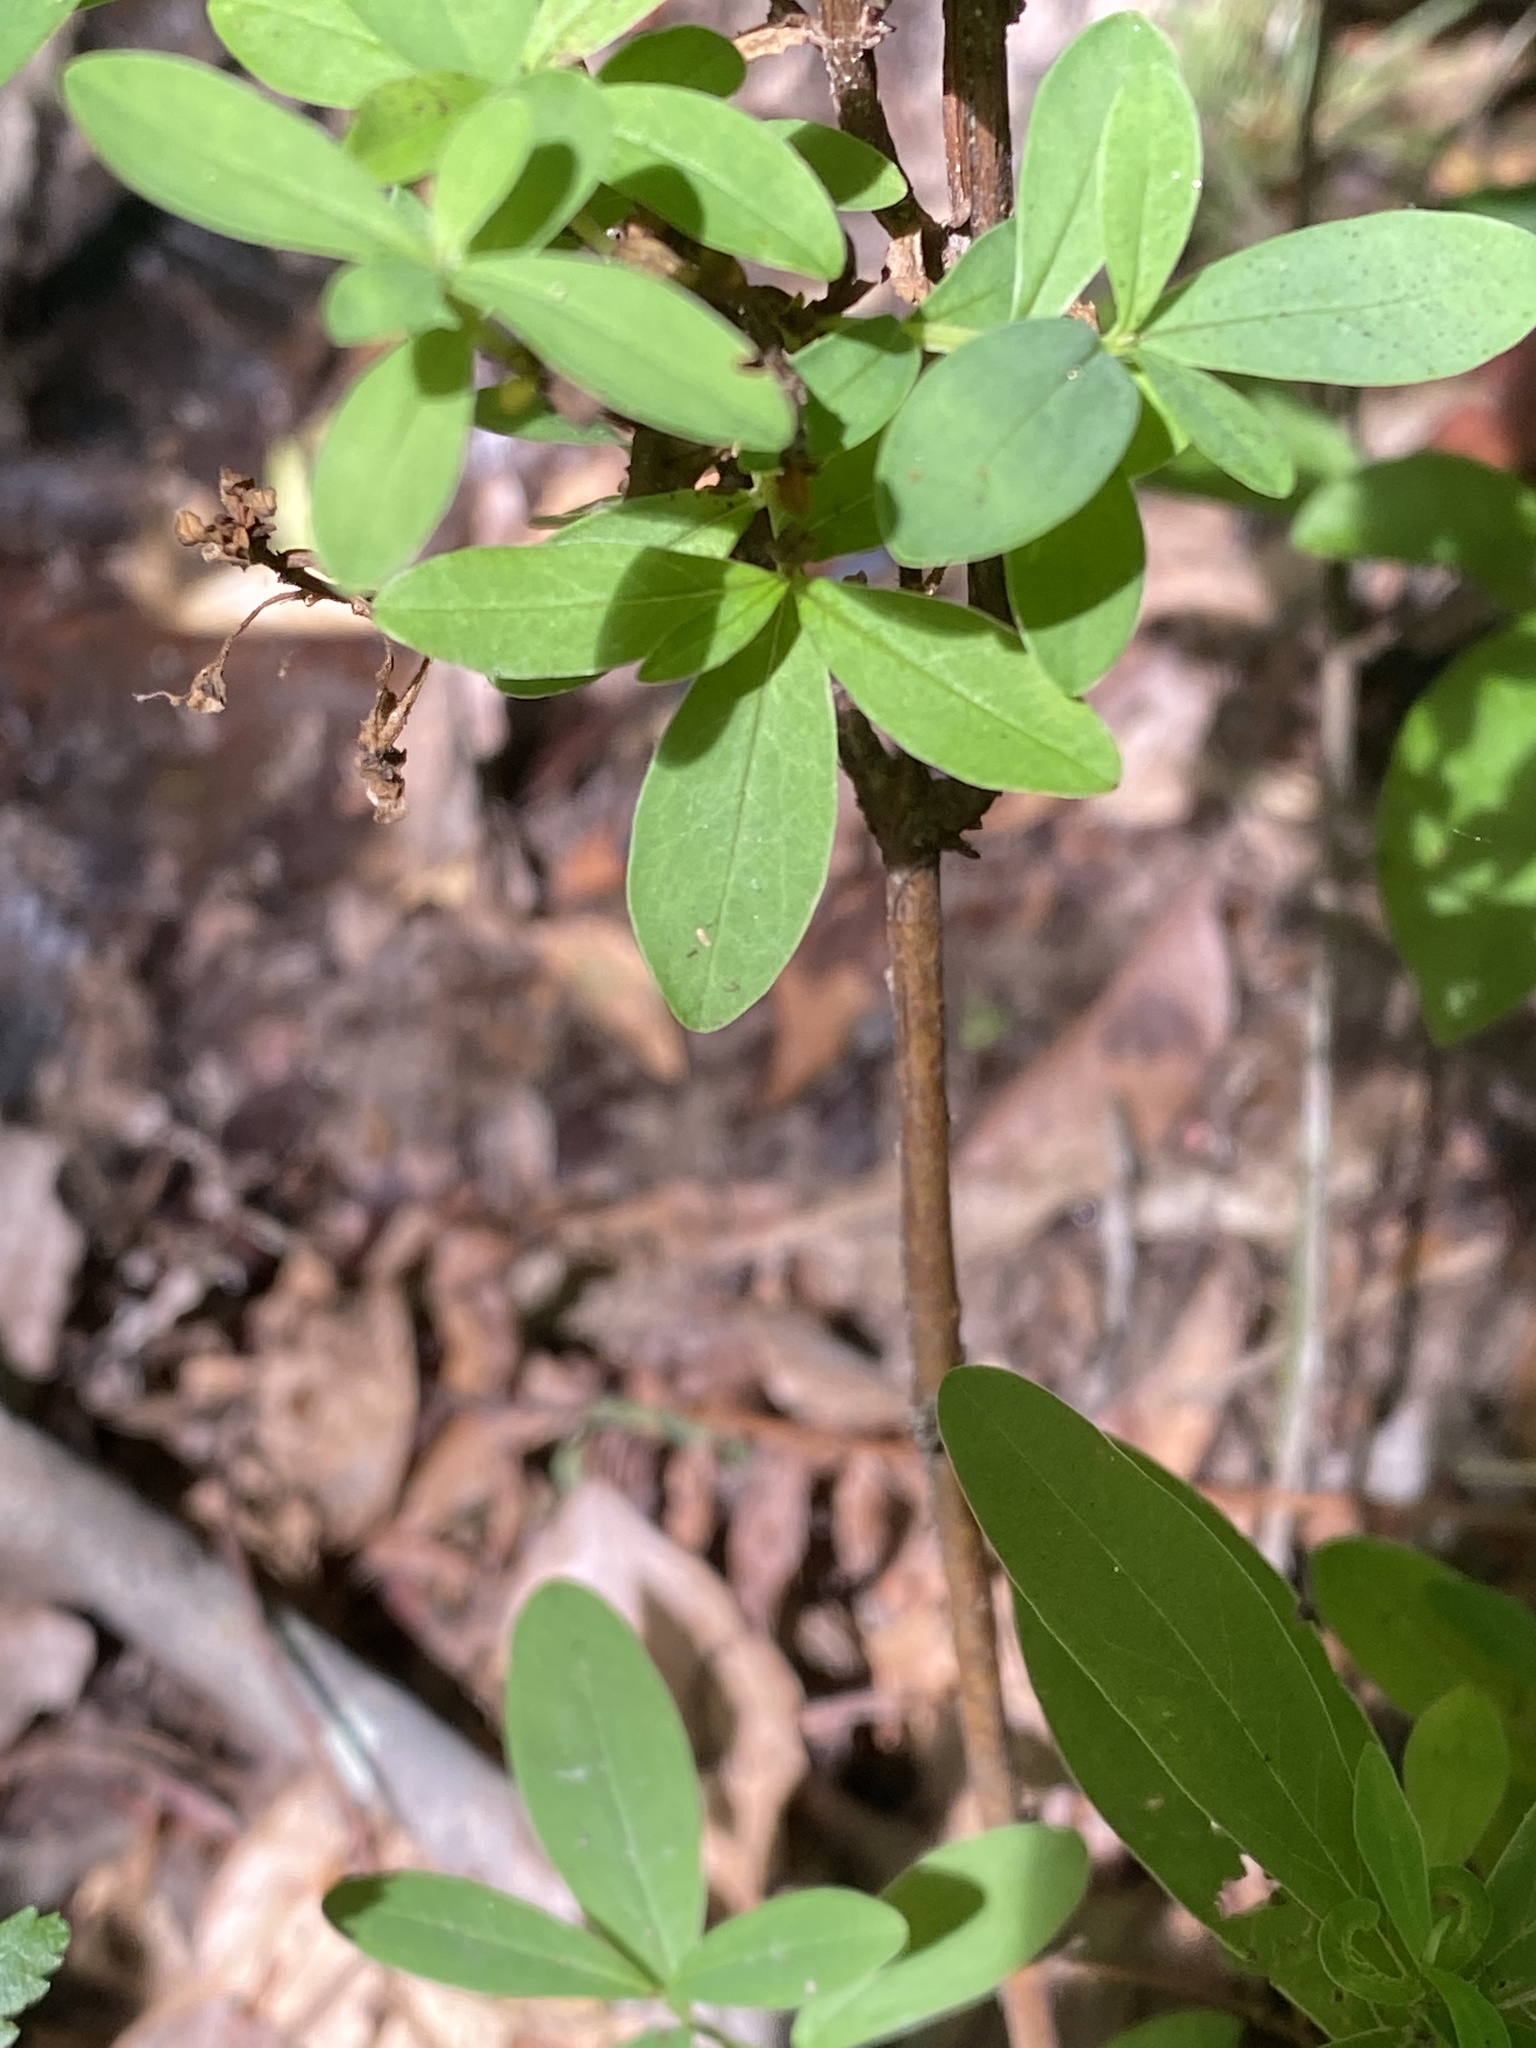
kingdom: Plantae
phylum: Tracheophyta
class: Magnoliopsida
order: Malpighiales
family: Hypericaceae
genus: Hypericum
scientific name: Hypericum nudiflorum
